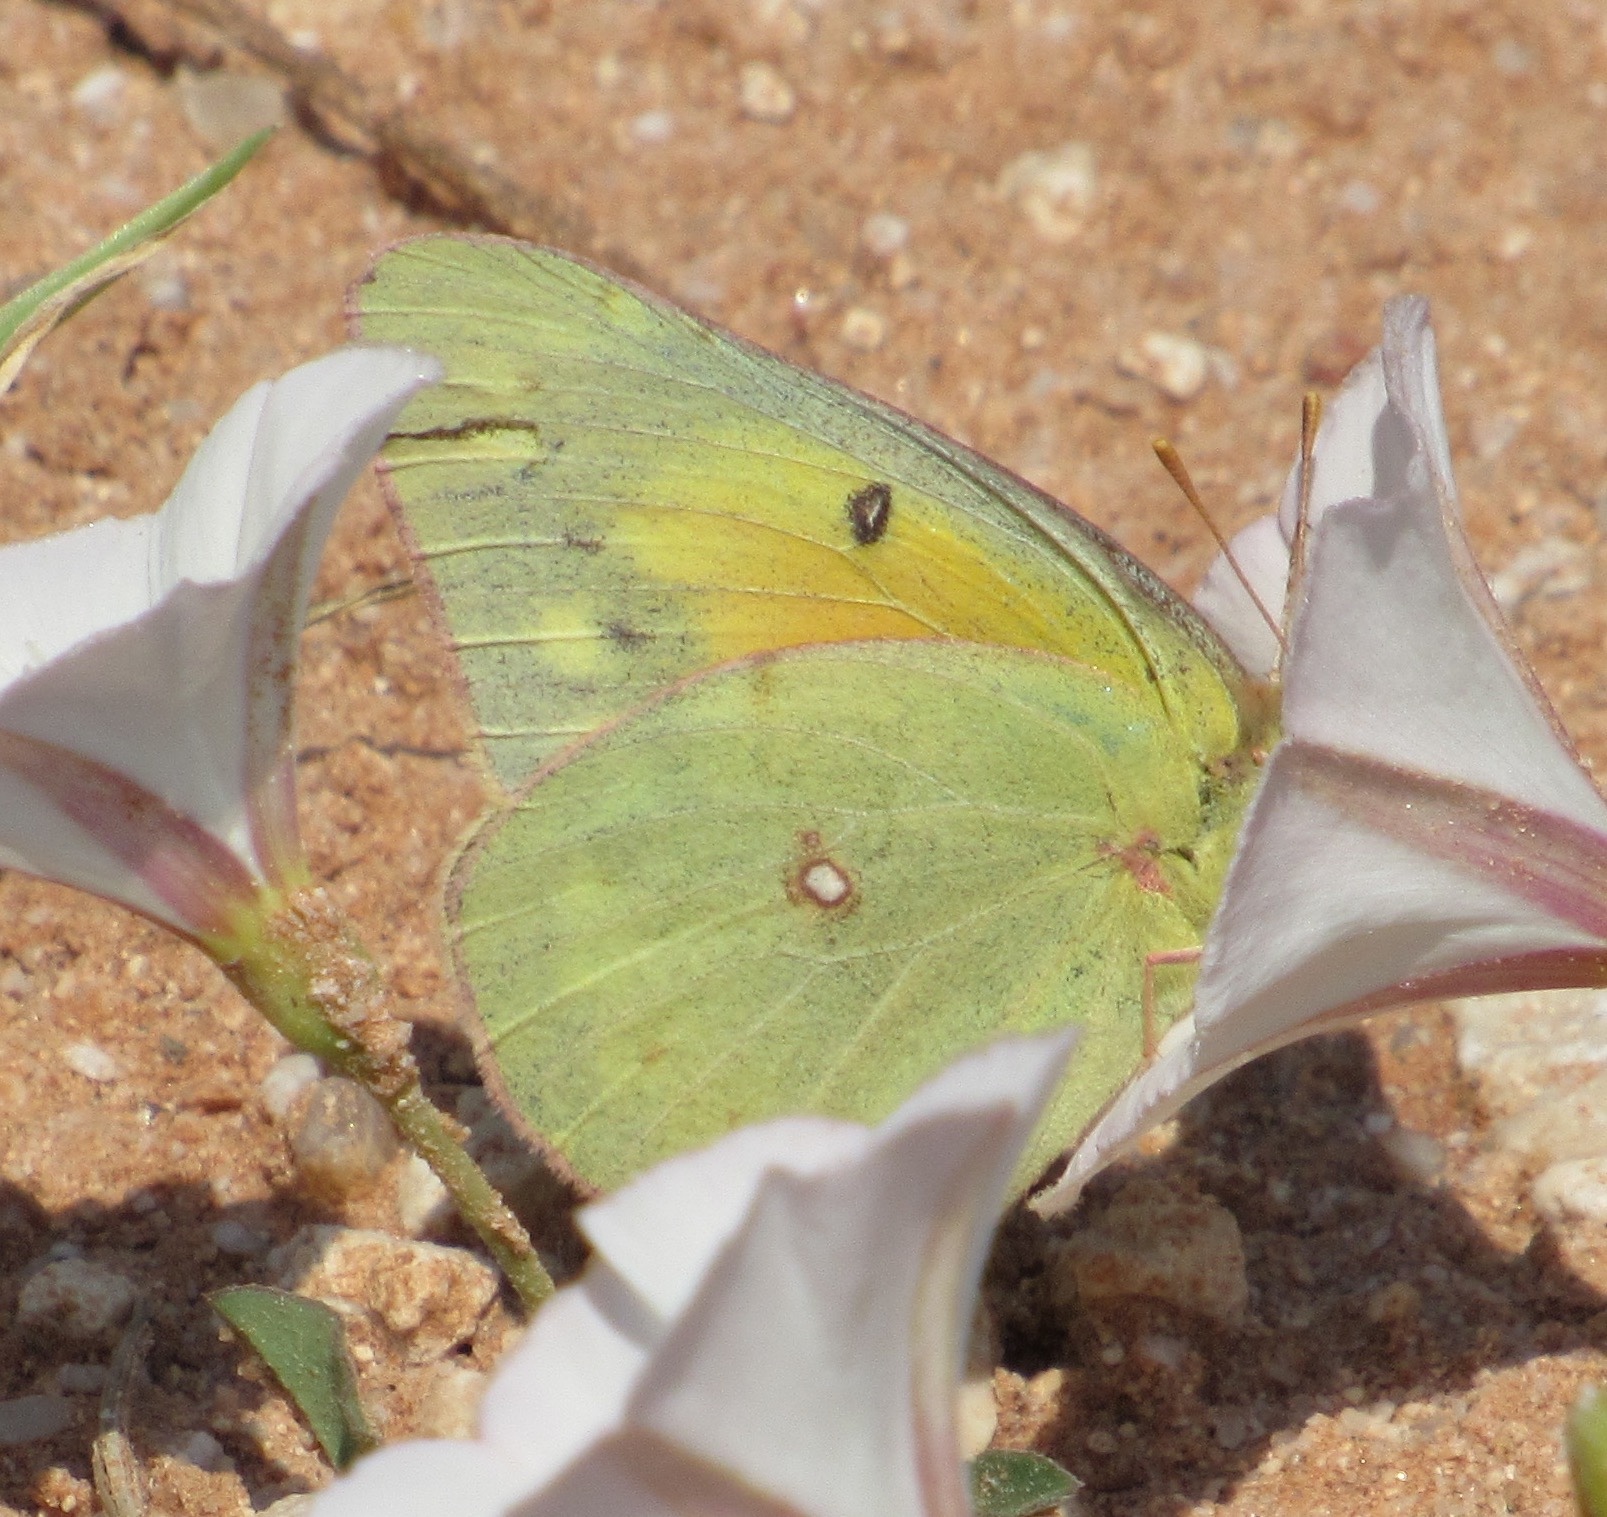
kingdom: Animalia
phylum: Arthropoda
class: Insecta
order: Lepidoptera
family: Pieridae
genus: Colias
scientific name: Colias eurytheme
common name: Alfalfa butterfly
